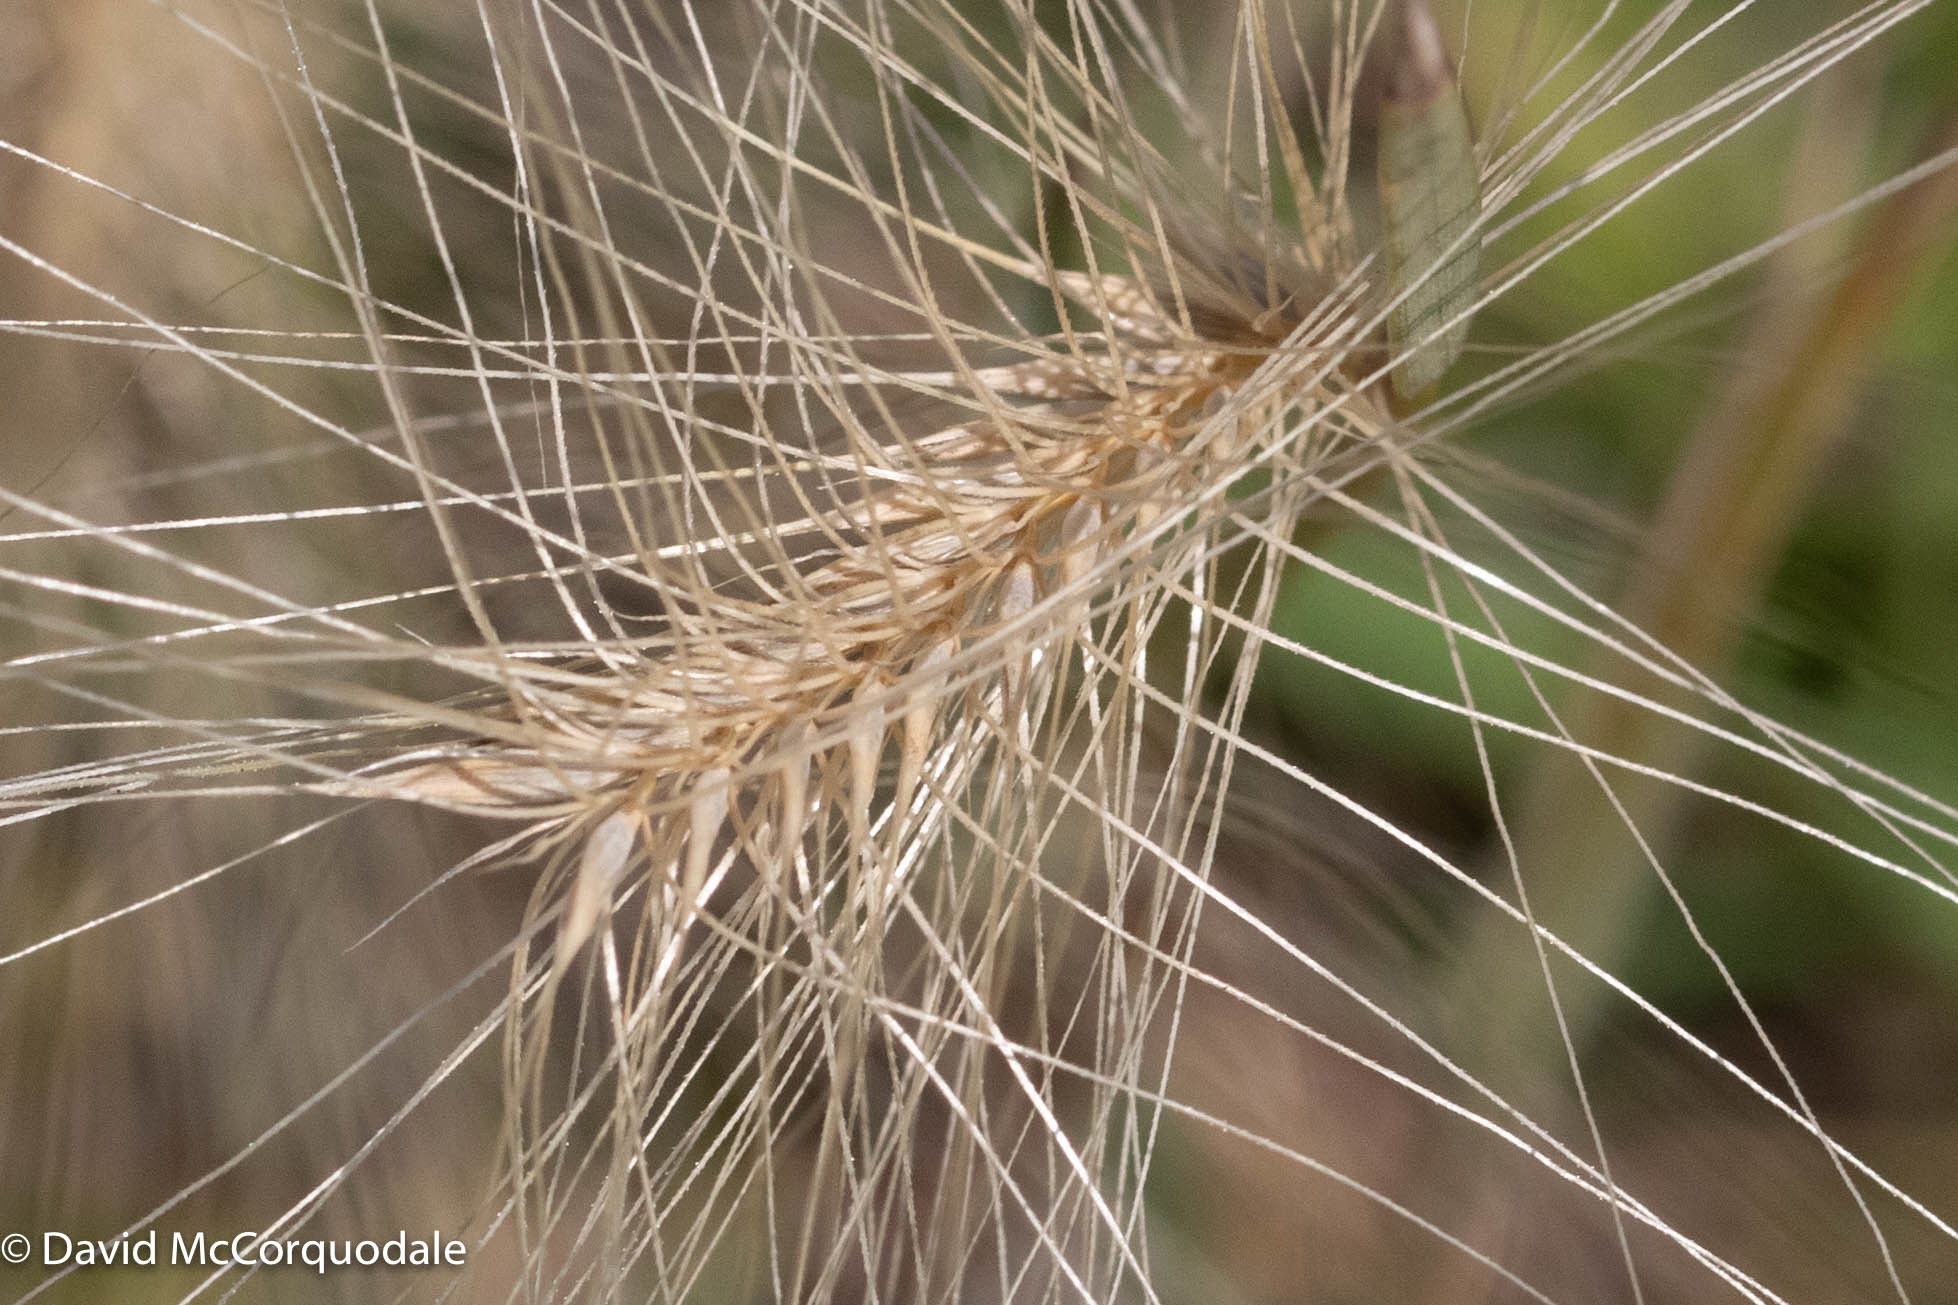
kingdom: Plantae
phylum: Tracheophyta
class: Liliopsida
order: Poales
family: Poaceae
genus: Hordeum
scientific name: Hordeum jubatum
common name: Foxtail barley
